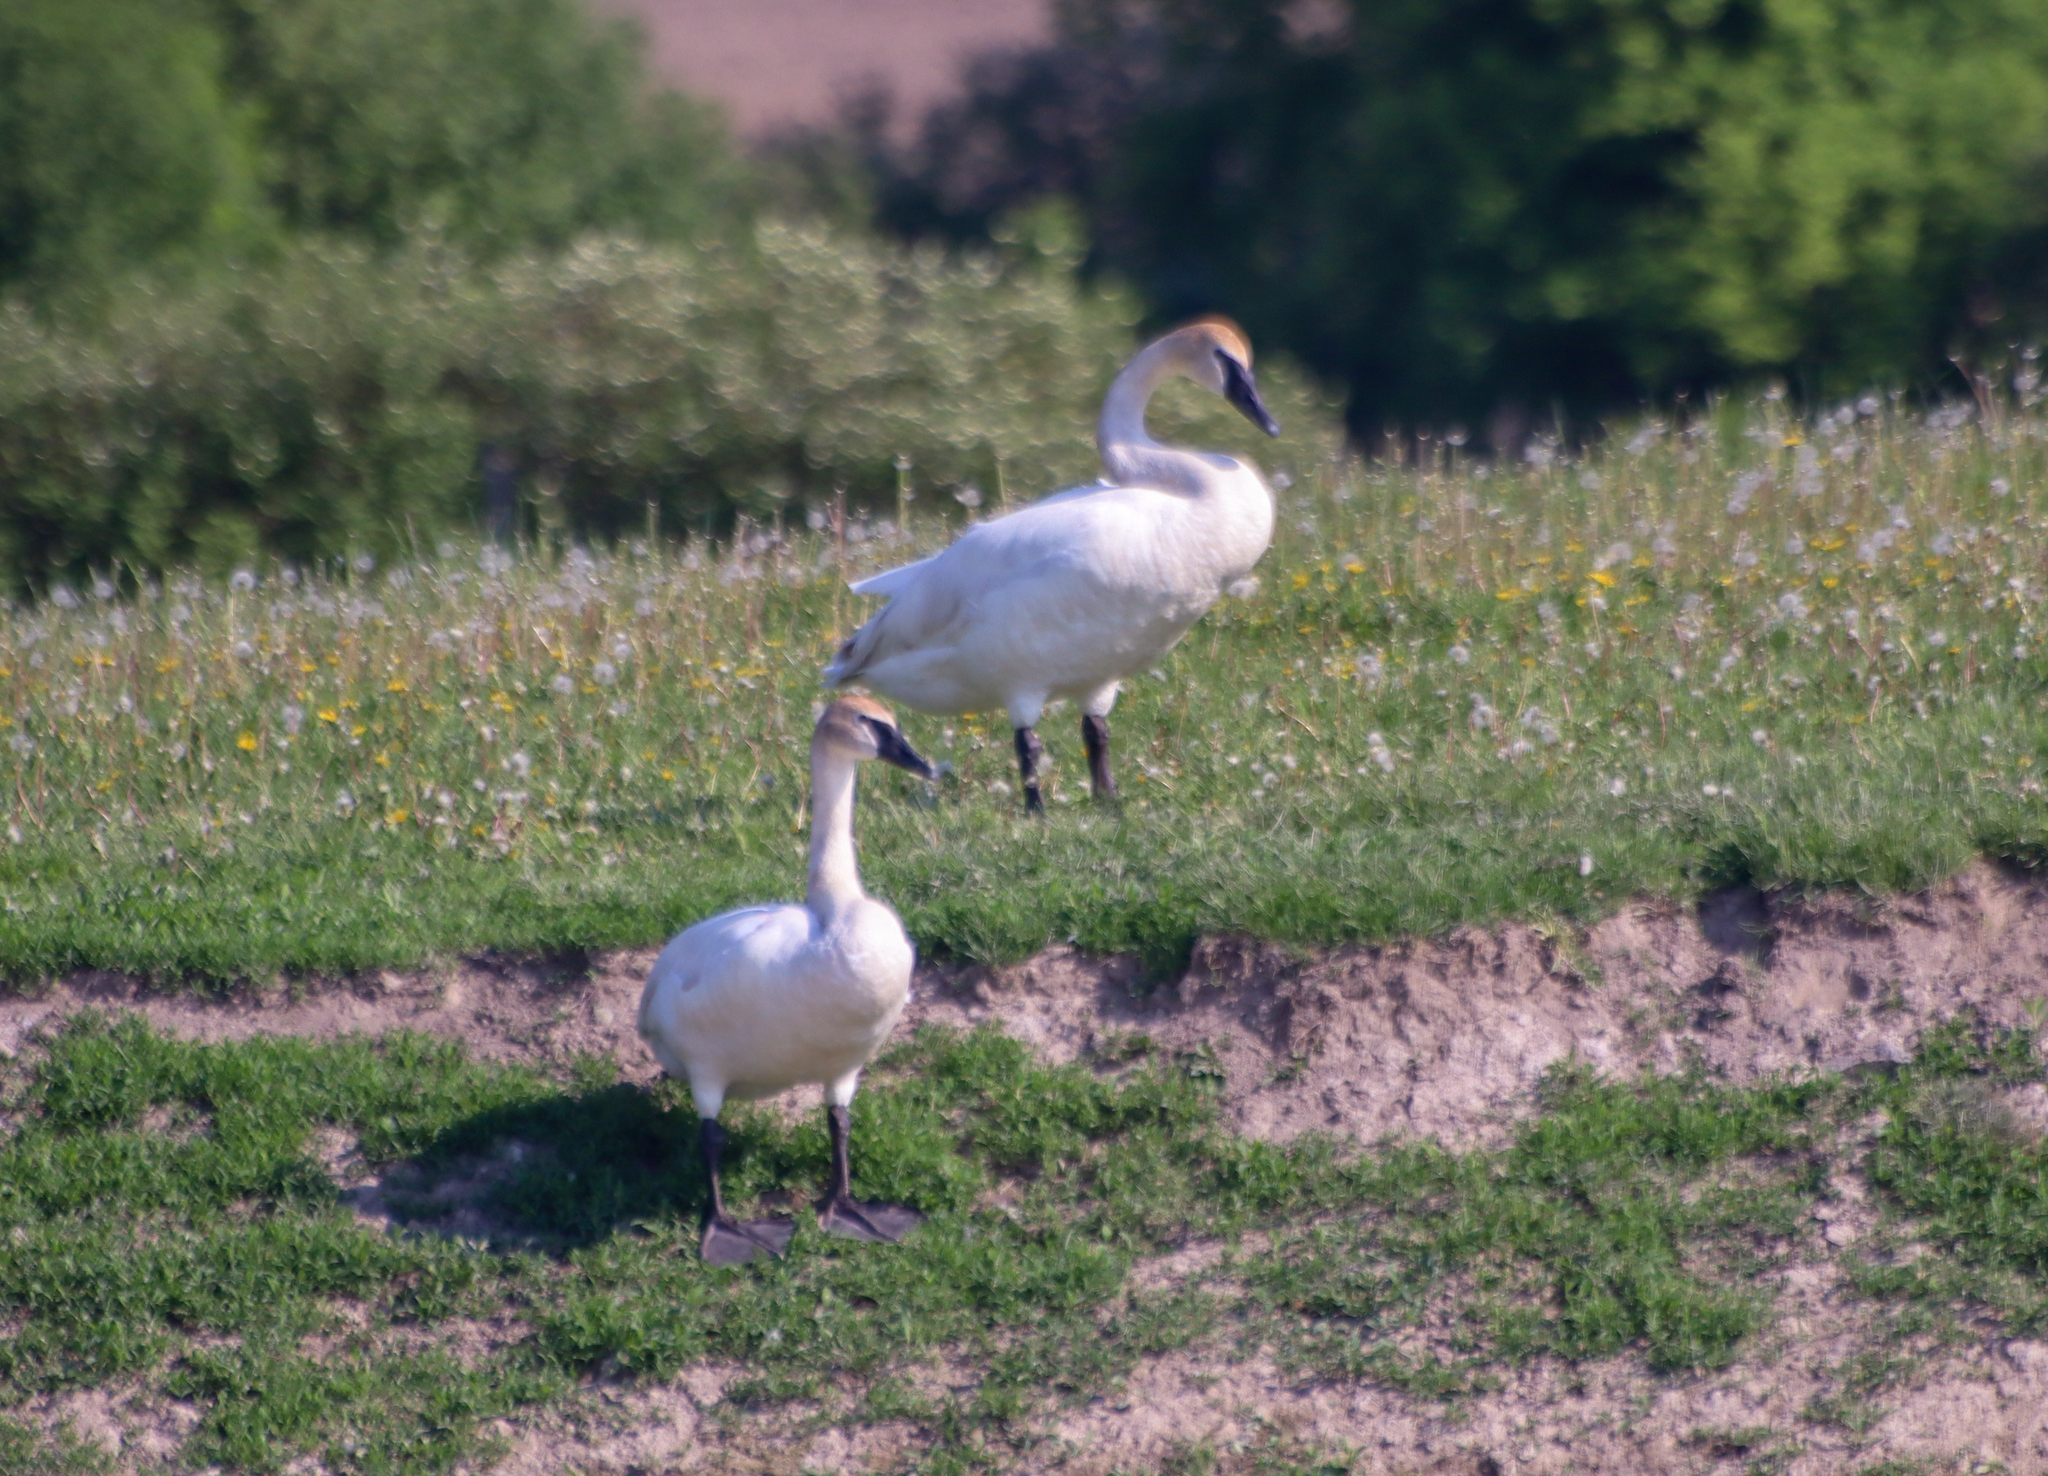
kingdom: Animalia
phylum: Chordata
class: Aves
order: Anseriformes
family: Anatidae
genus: Cygnus
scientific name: Cygnus buccinator
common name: Trumpeter swan
